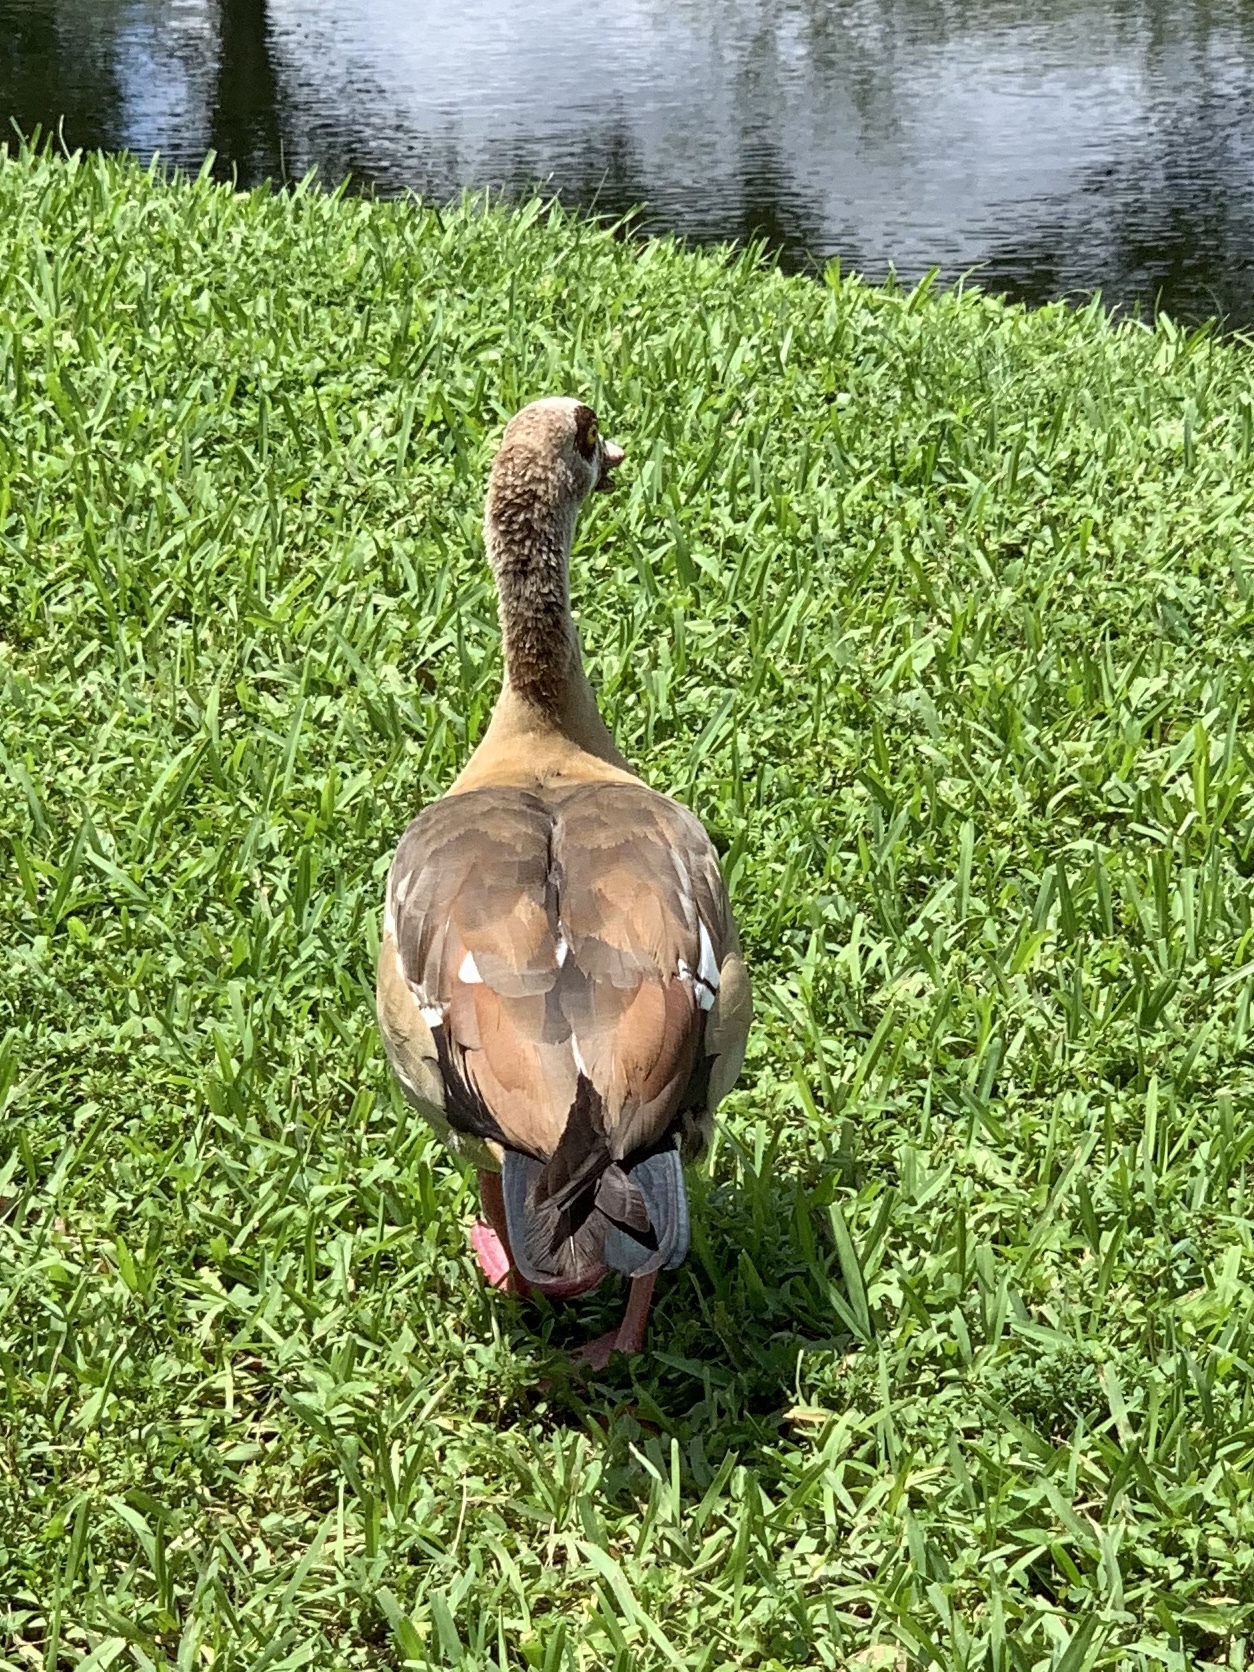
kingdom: Animalia
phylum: Chordata
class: Aves
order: Anseriformes
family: Anatidae
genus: Alopochen
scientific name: Alopochen aegyptiaca
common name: Egyptian goose
